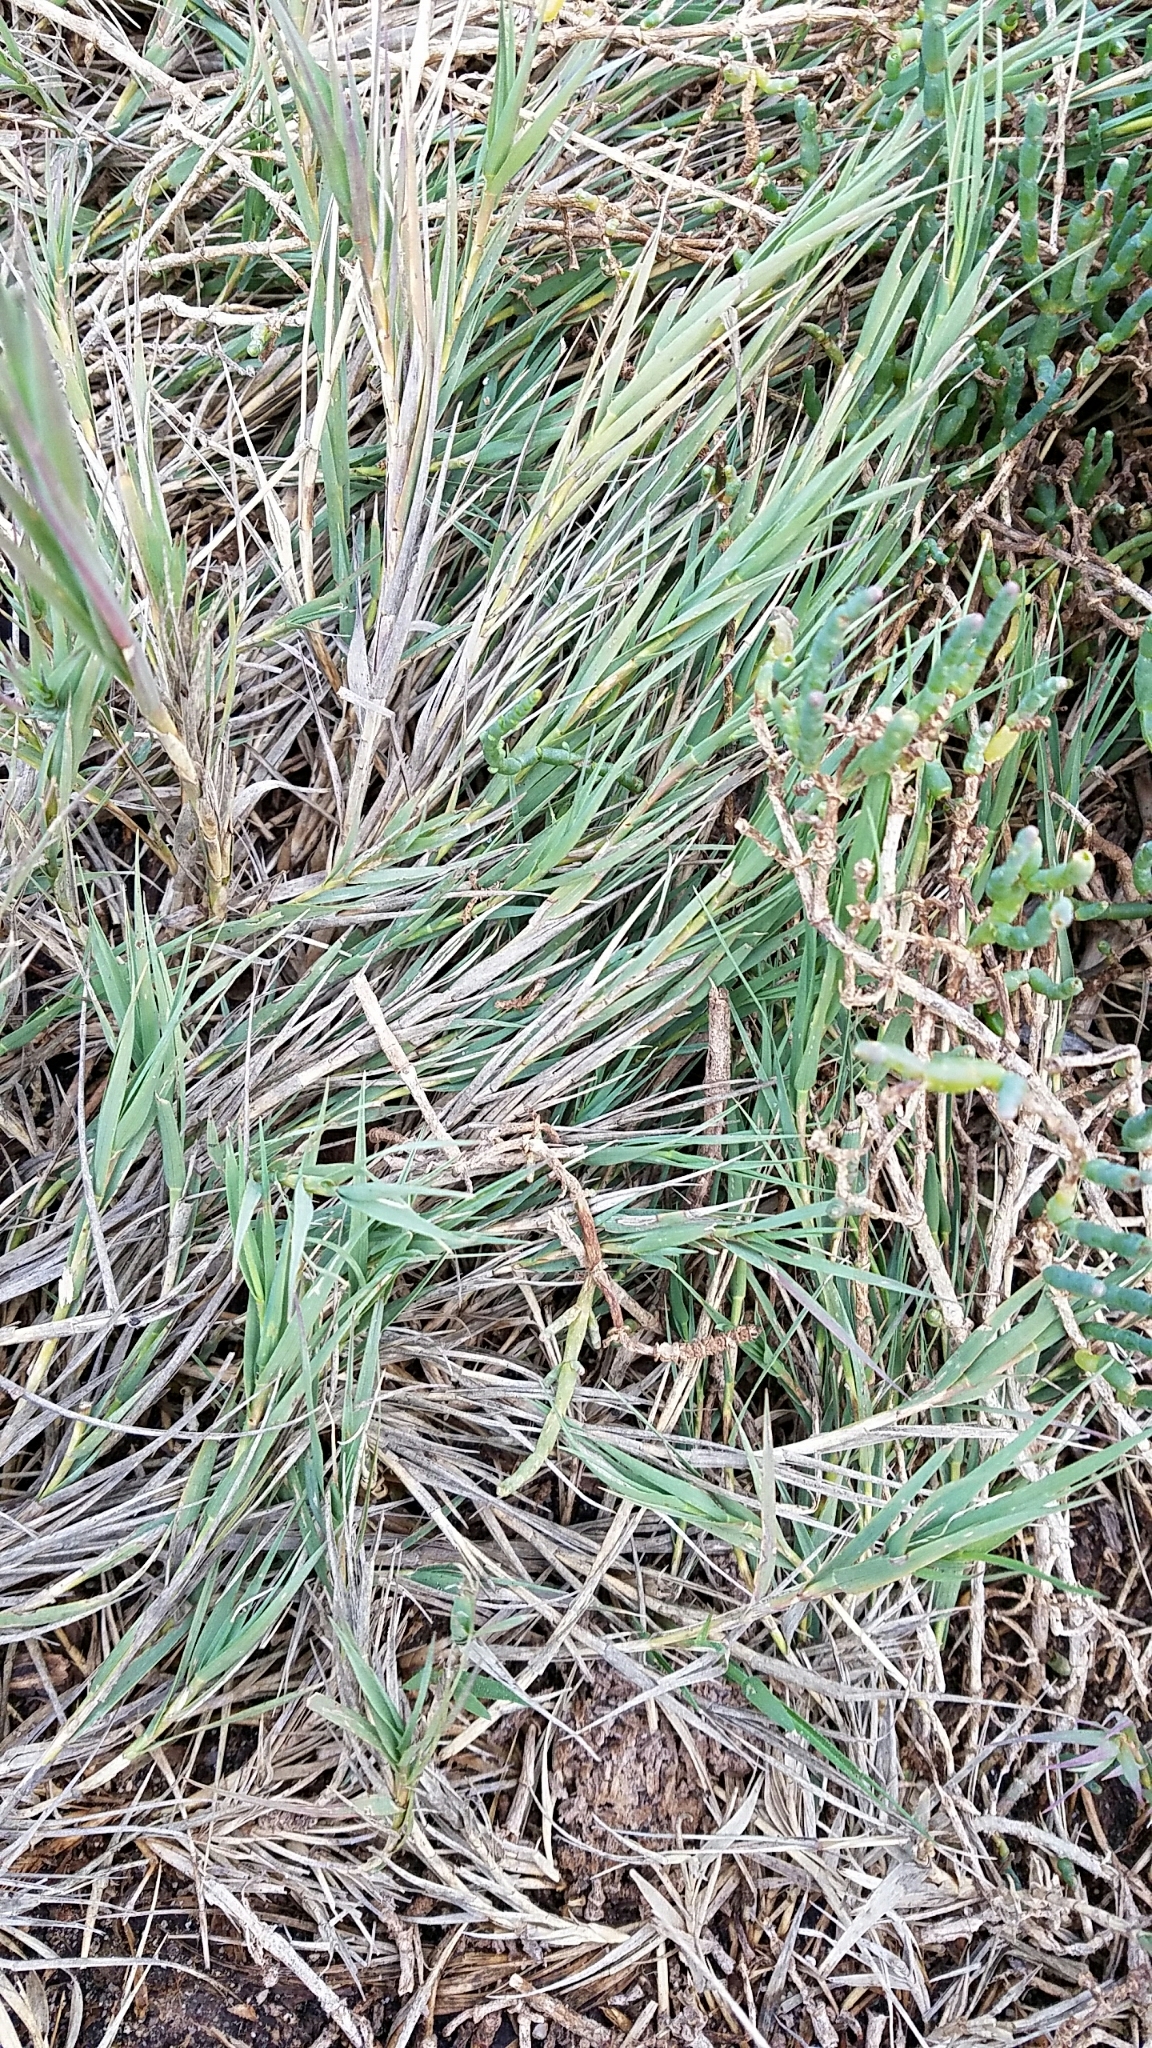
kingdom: Plantae
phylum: Tracheophyta
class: Liliopsida
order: Poales
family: Poaceae
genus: Distichlis
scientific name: Distichlis spicata
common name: Saltgrass
